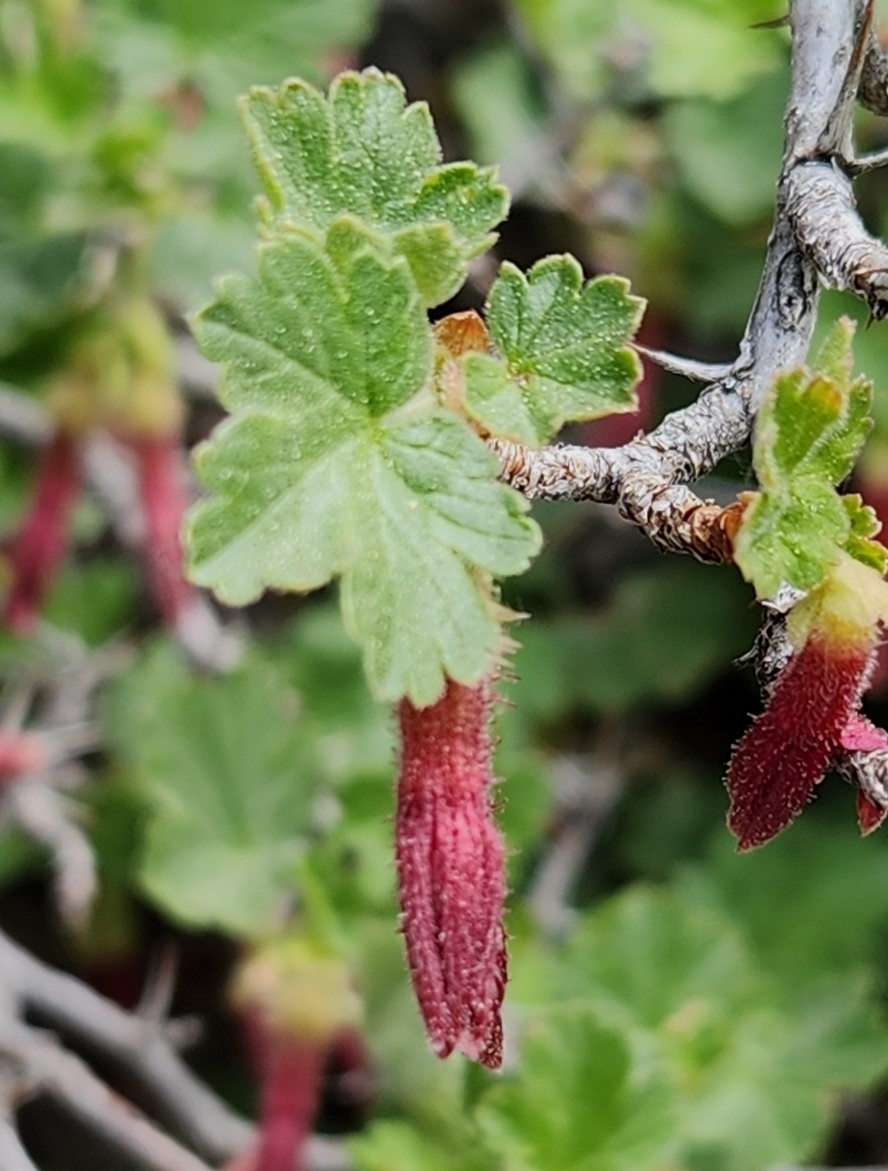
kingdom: Plantae
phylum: Tracheophyta
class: Magnoliopsida
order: Saxifragales
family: Grossulariaceae
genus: Ribes
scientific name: Ribes roezlii
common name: Sierra gooseberry
